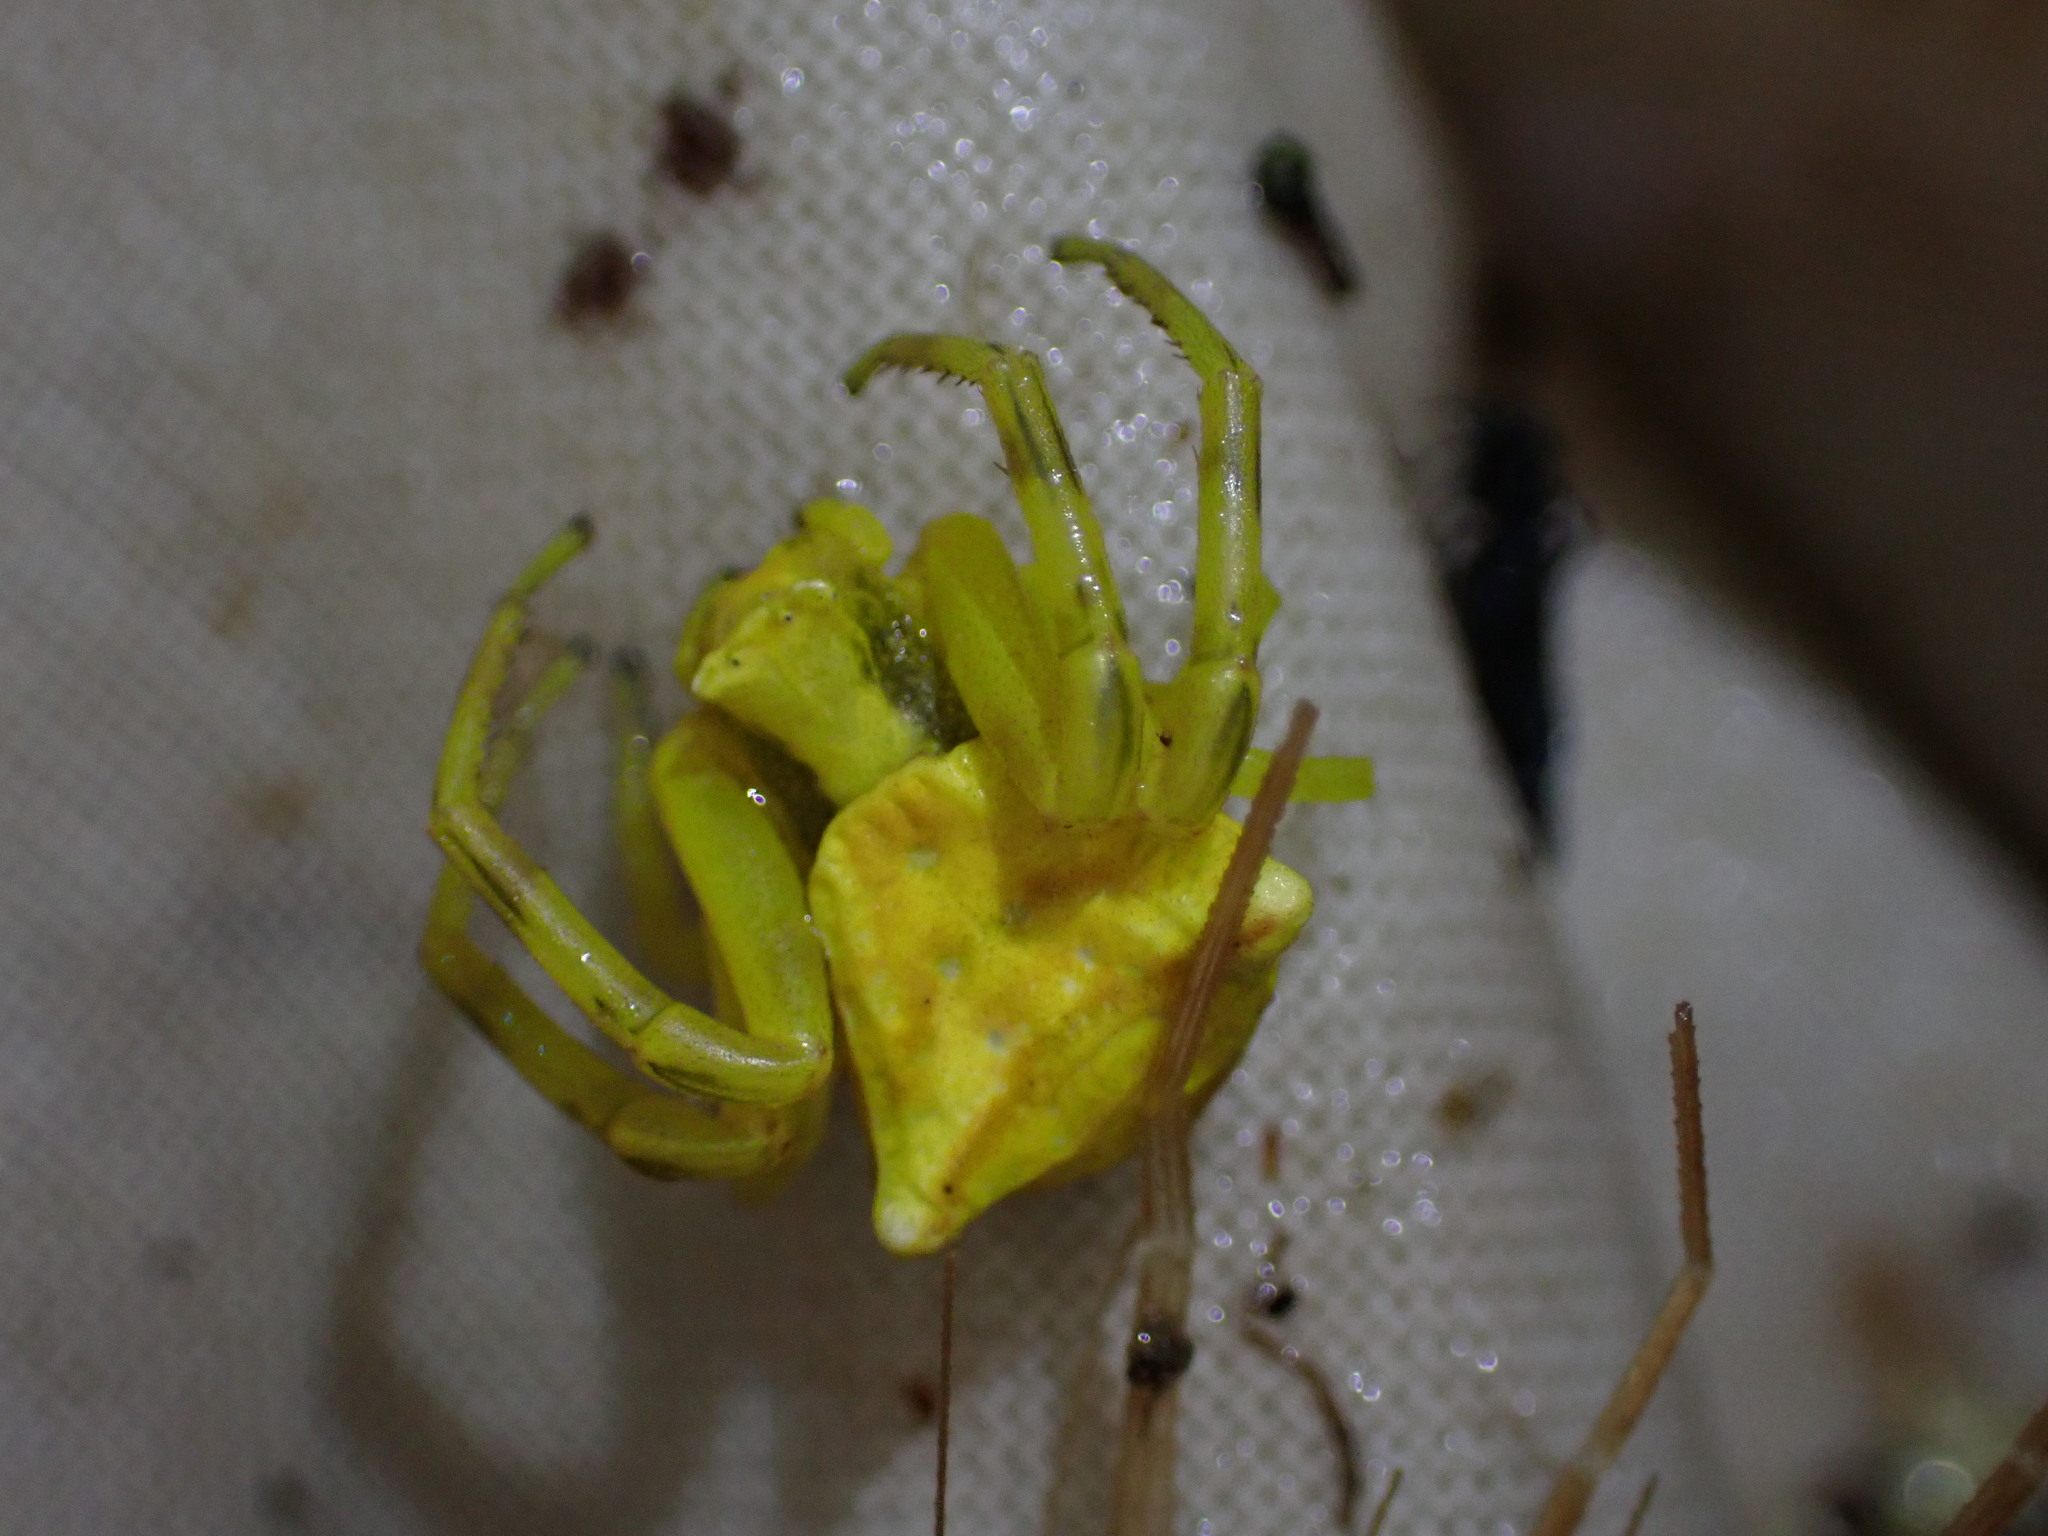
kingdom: Animalia
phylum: Arthropoda
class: Arachnida
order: Araneae
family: Thomisidae
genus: Thomisus
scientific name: Thomisus onustus
